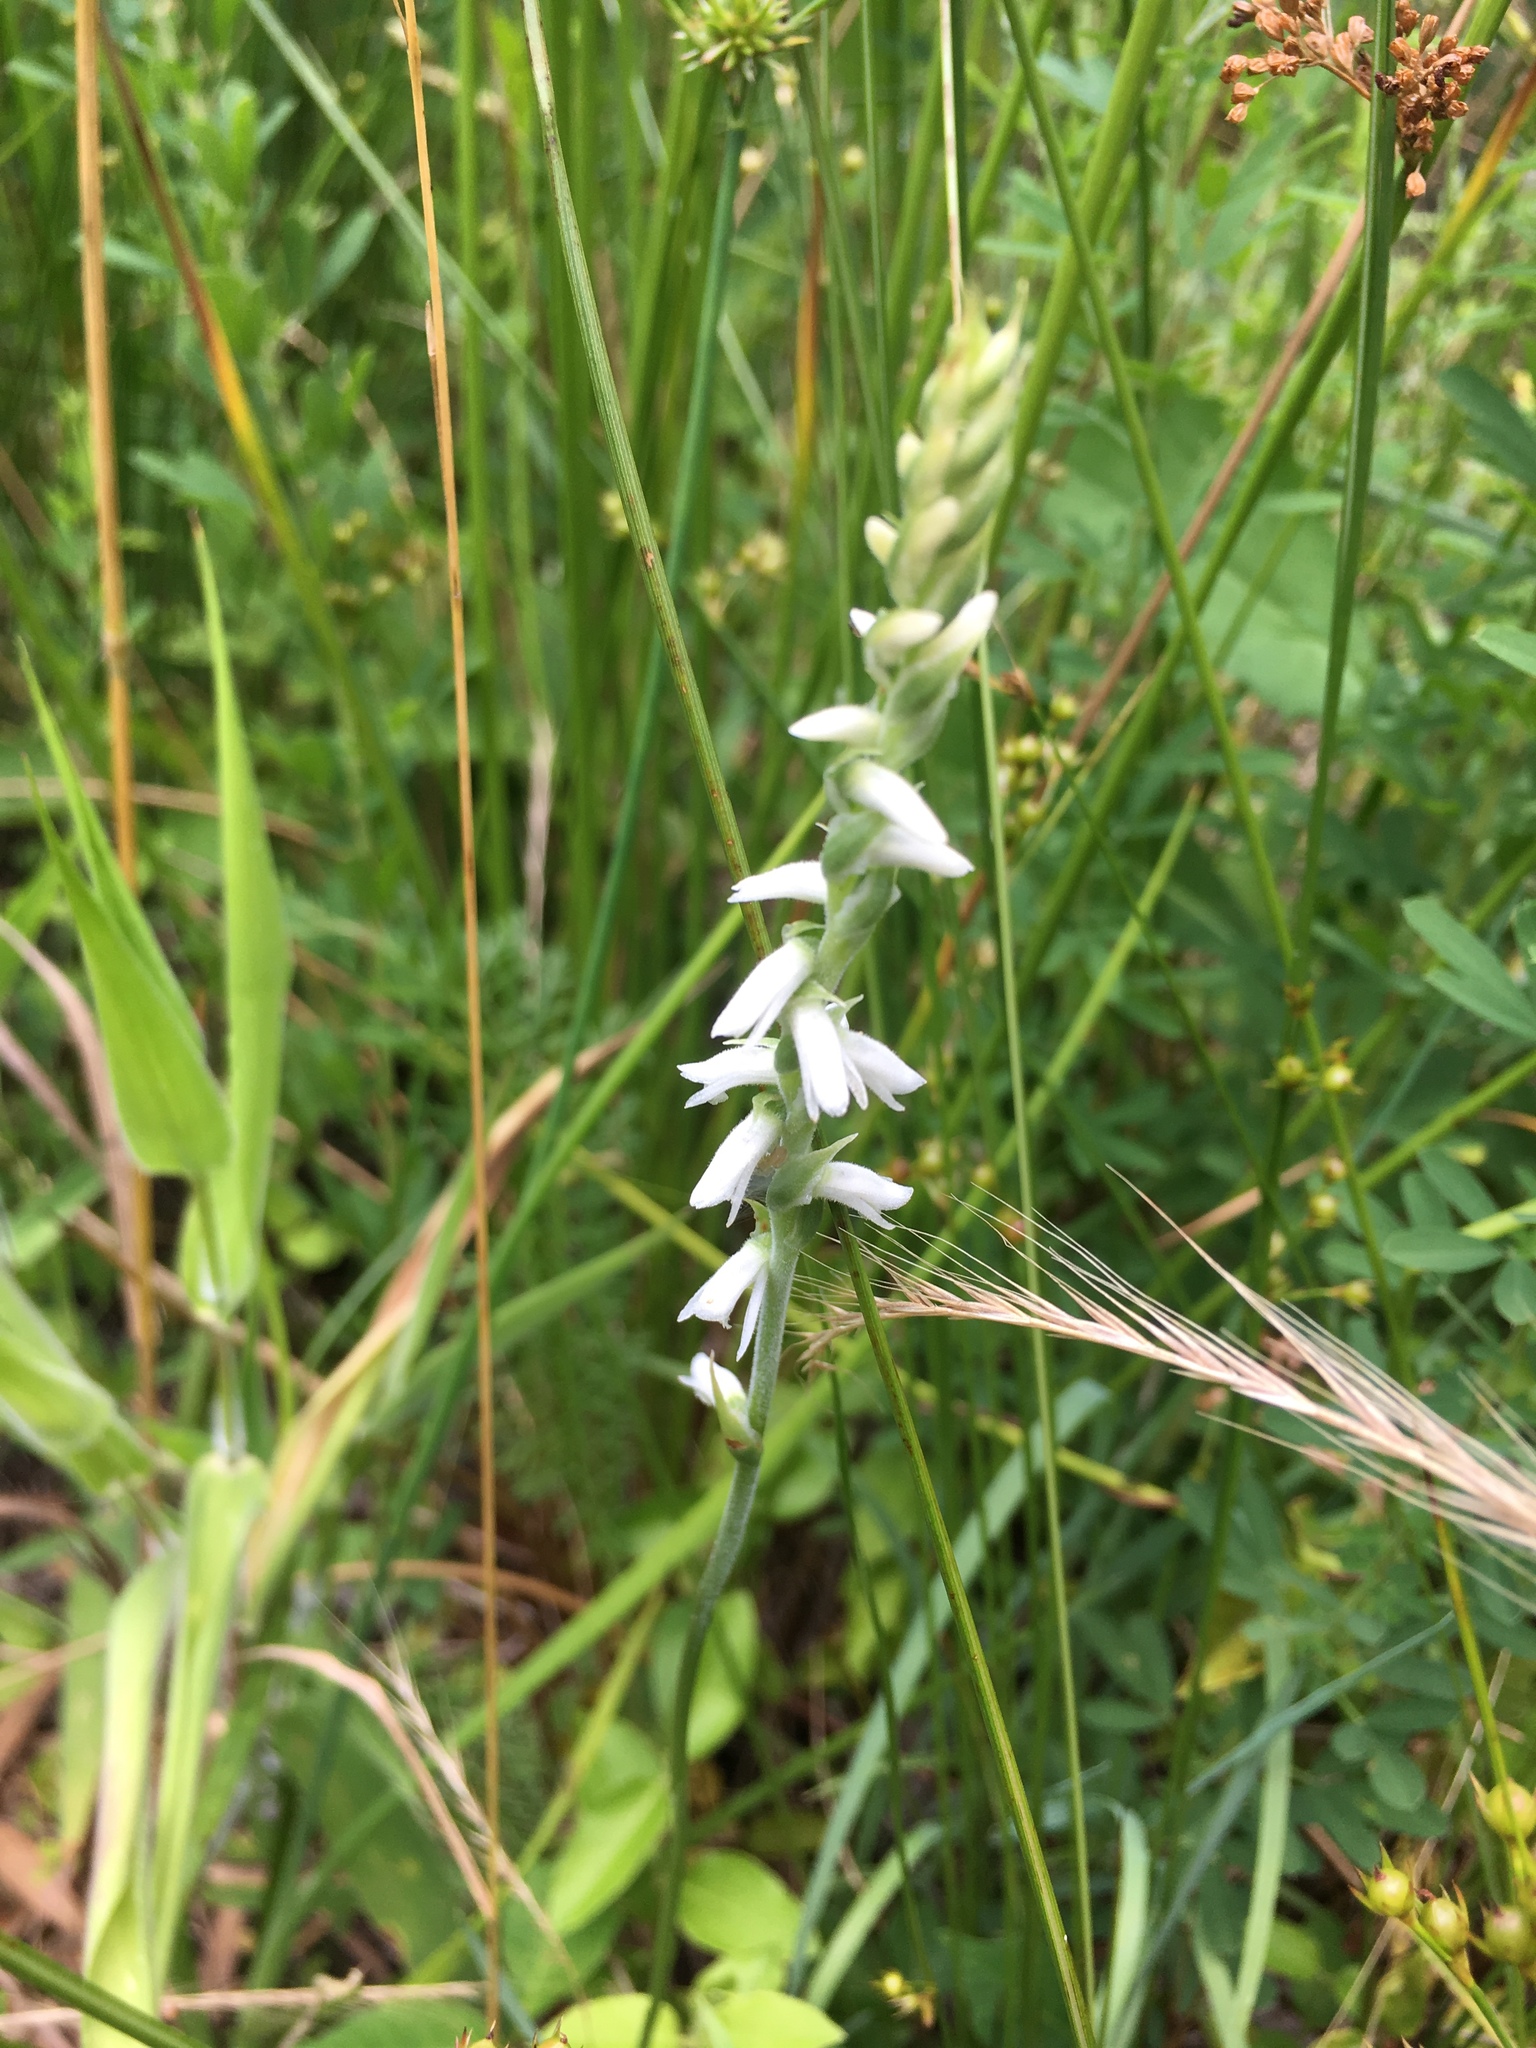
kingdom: Plantae
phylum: Tracheophyta
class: Liliopsida
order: Asparagales
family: Orchidaceae
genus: Spiranthes
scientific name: Spiranthes vernalis
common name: Spring ladies'-tresses
